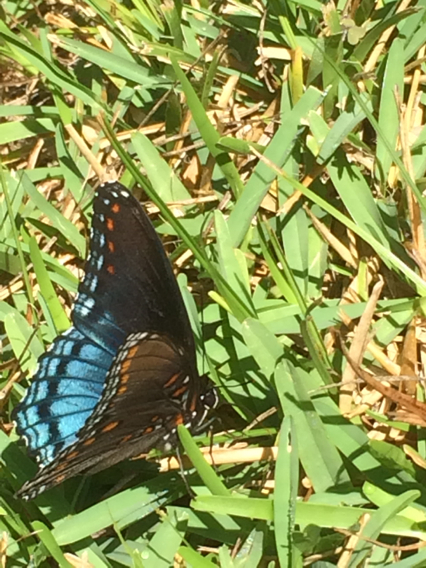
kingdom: Animalia
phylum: Arthropoda
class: Insecta
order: Lepidoptera
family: Nymphalidae
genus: Limenitis
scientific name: Limenitis astyanax
